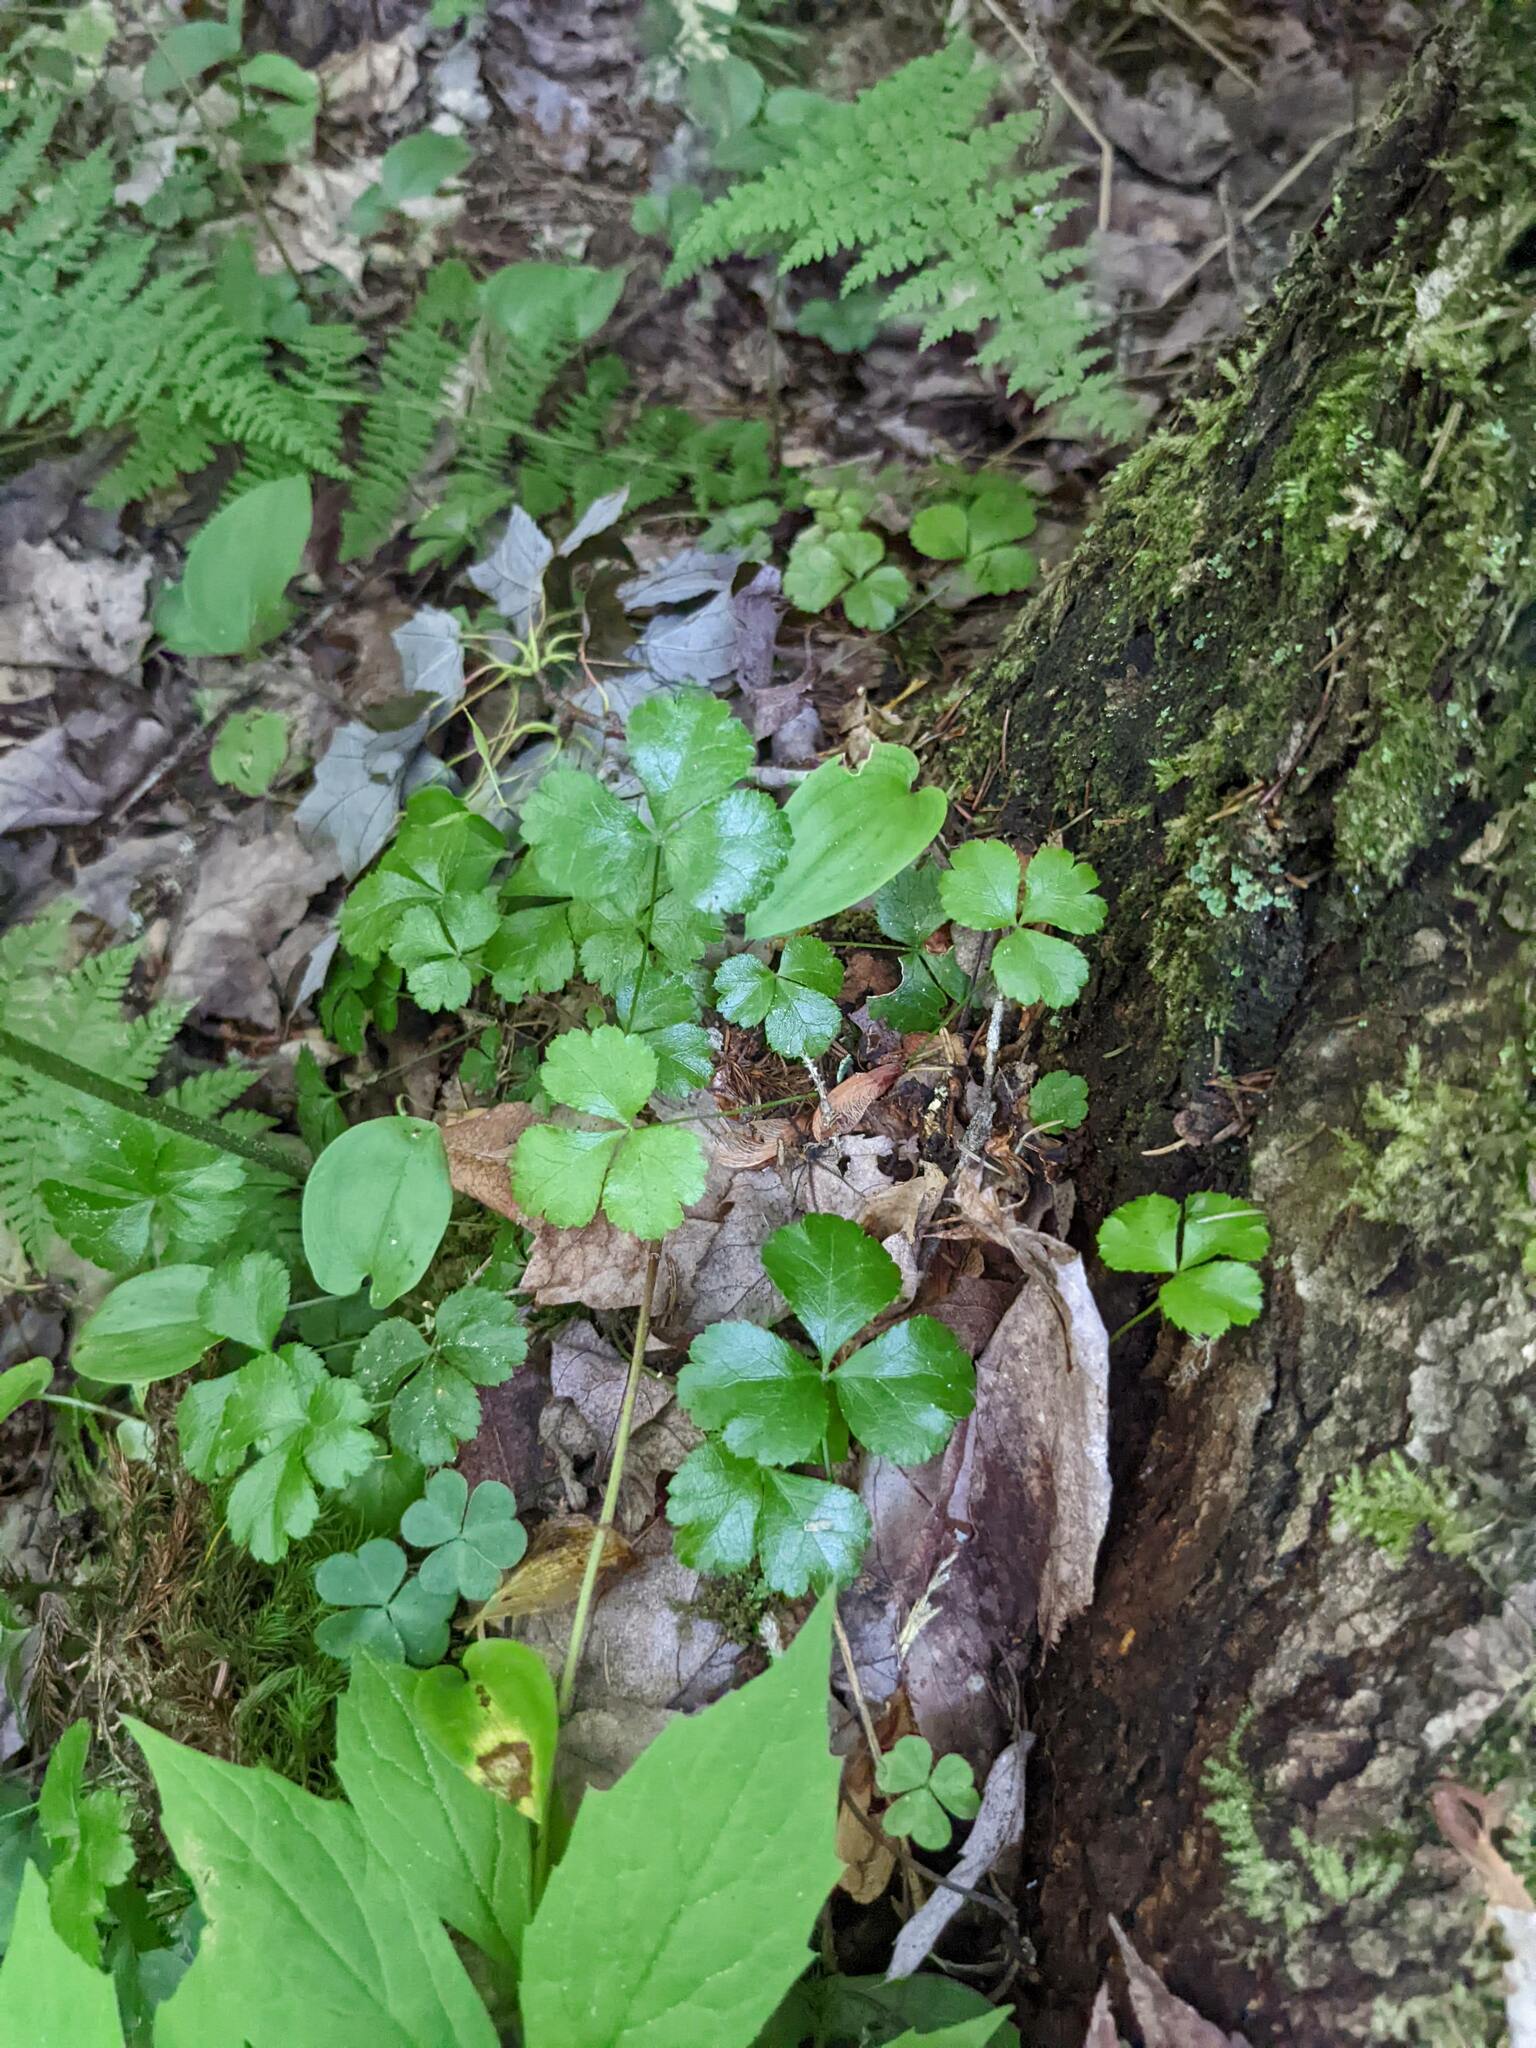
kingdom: Plantae
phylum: Tracheophyta
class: Magnoliopsida
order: Ranunculales
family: Ranunculaceae
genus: Coptis
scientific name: Coptis trifolia
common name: Canker-root
